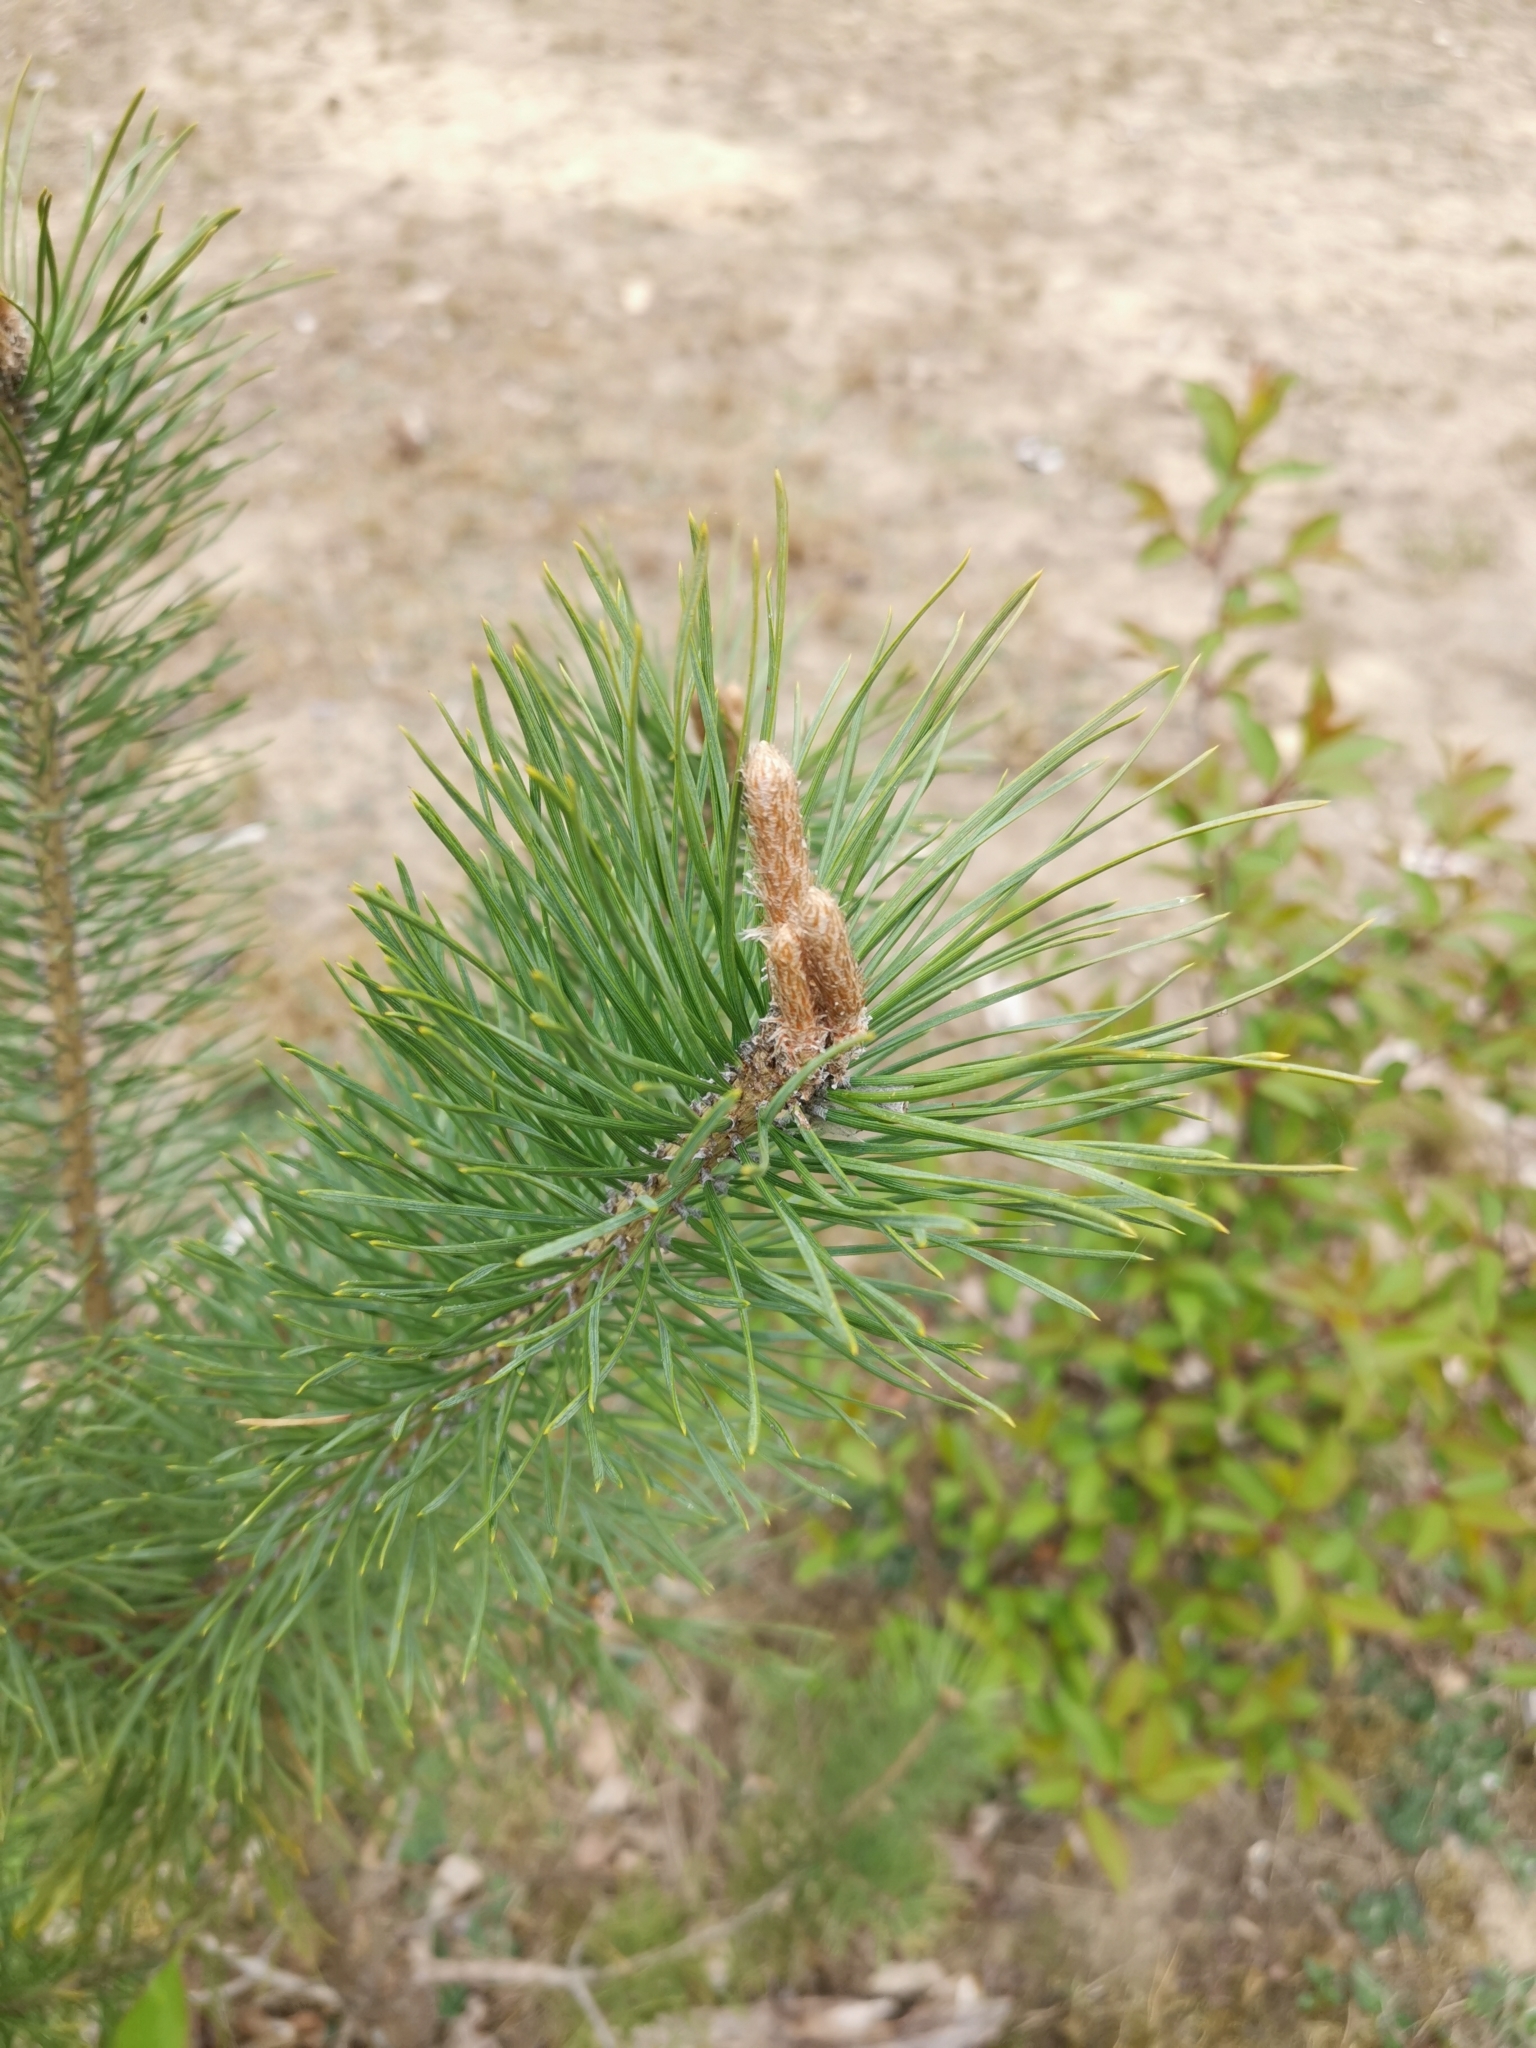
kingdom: Plantae
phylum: Tracheophyta
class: Pinopsida
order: Pinales
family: Pinaceae
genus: Pinus
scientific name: Pinus sylvestris
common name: Scots pine
